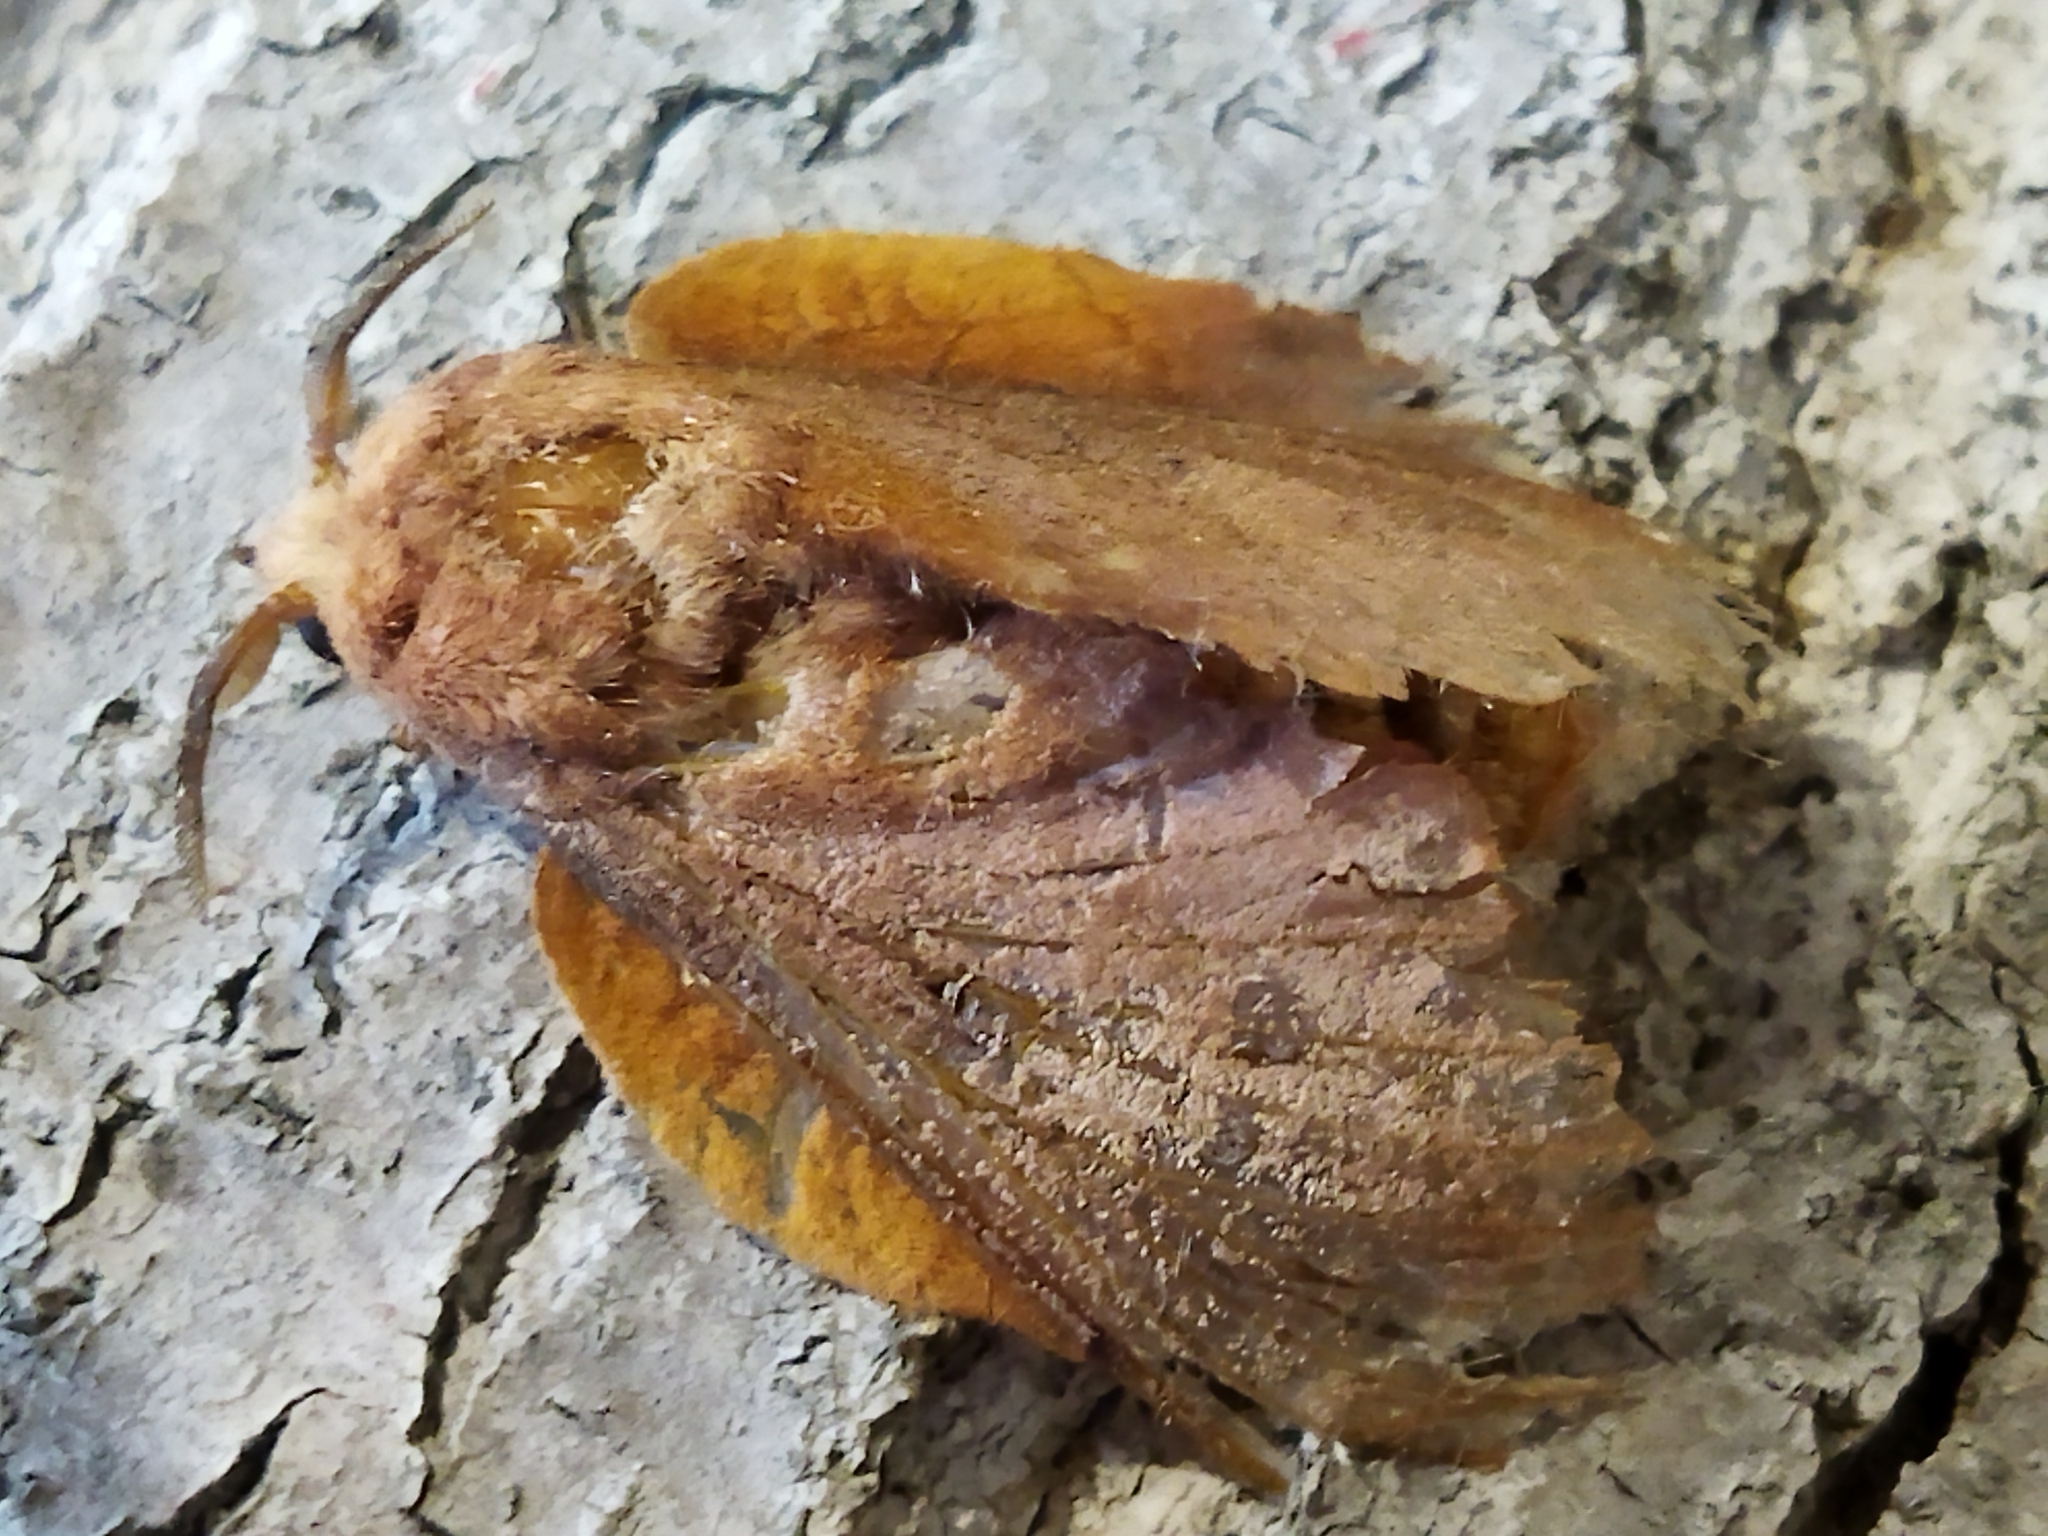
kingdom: Animalia
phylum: Arthropoda
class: Insecta
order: Lepidoptera
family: Lasiocampidae
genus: Gastropacha
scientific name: Gastropacha quercifolia
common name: Lappet
